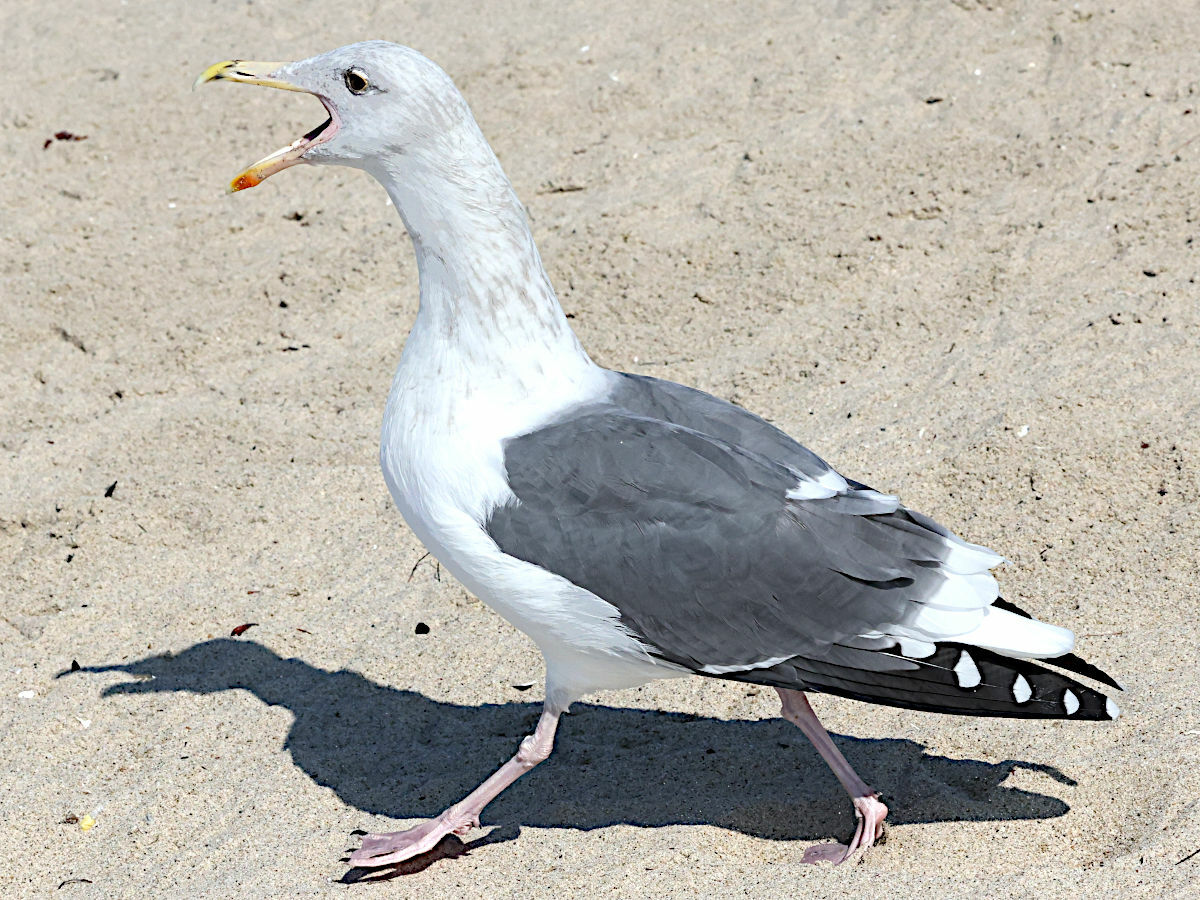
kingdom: Animalia
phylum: Chordata
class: Aves
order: Charadriiformes
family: Laridae
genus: Larus
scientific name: Larus occidentalis
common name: Western gull
